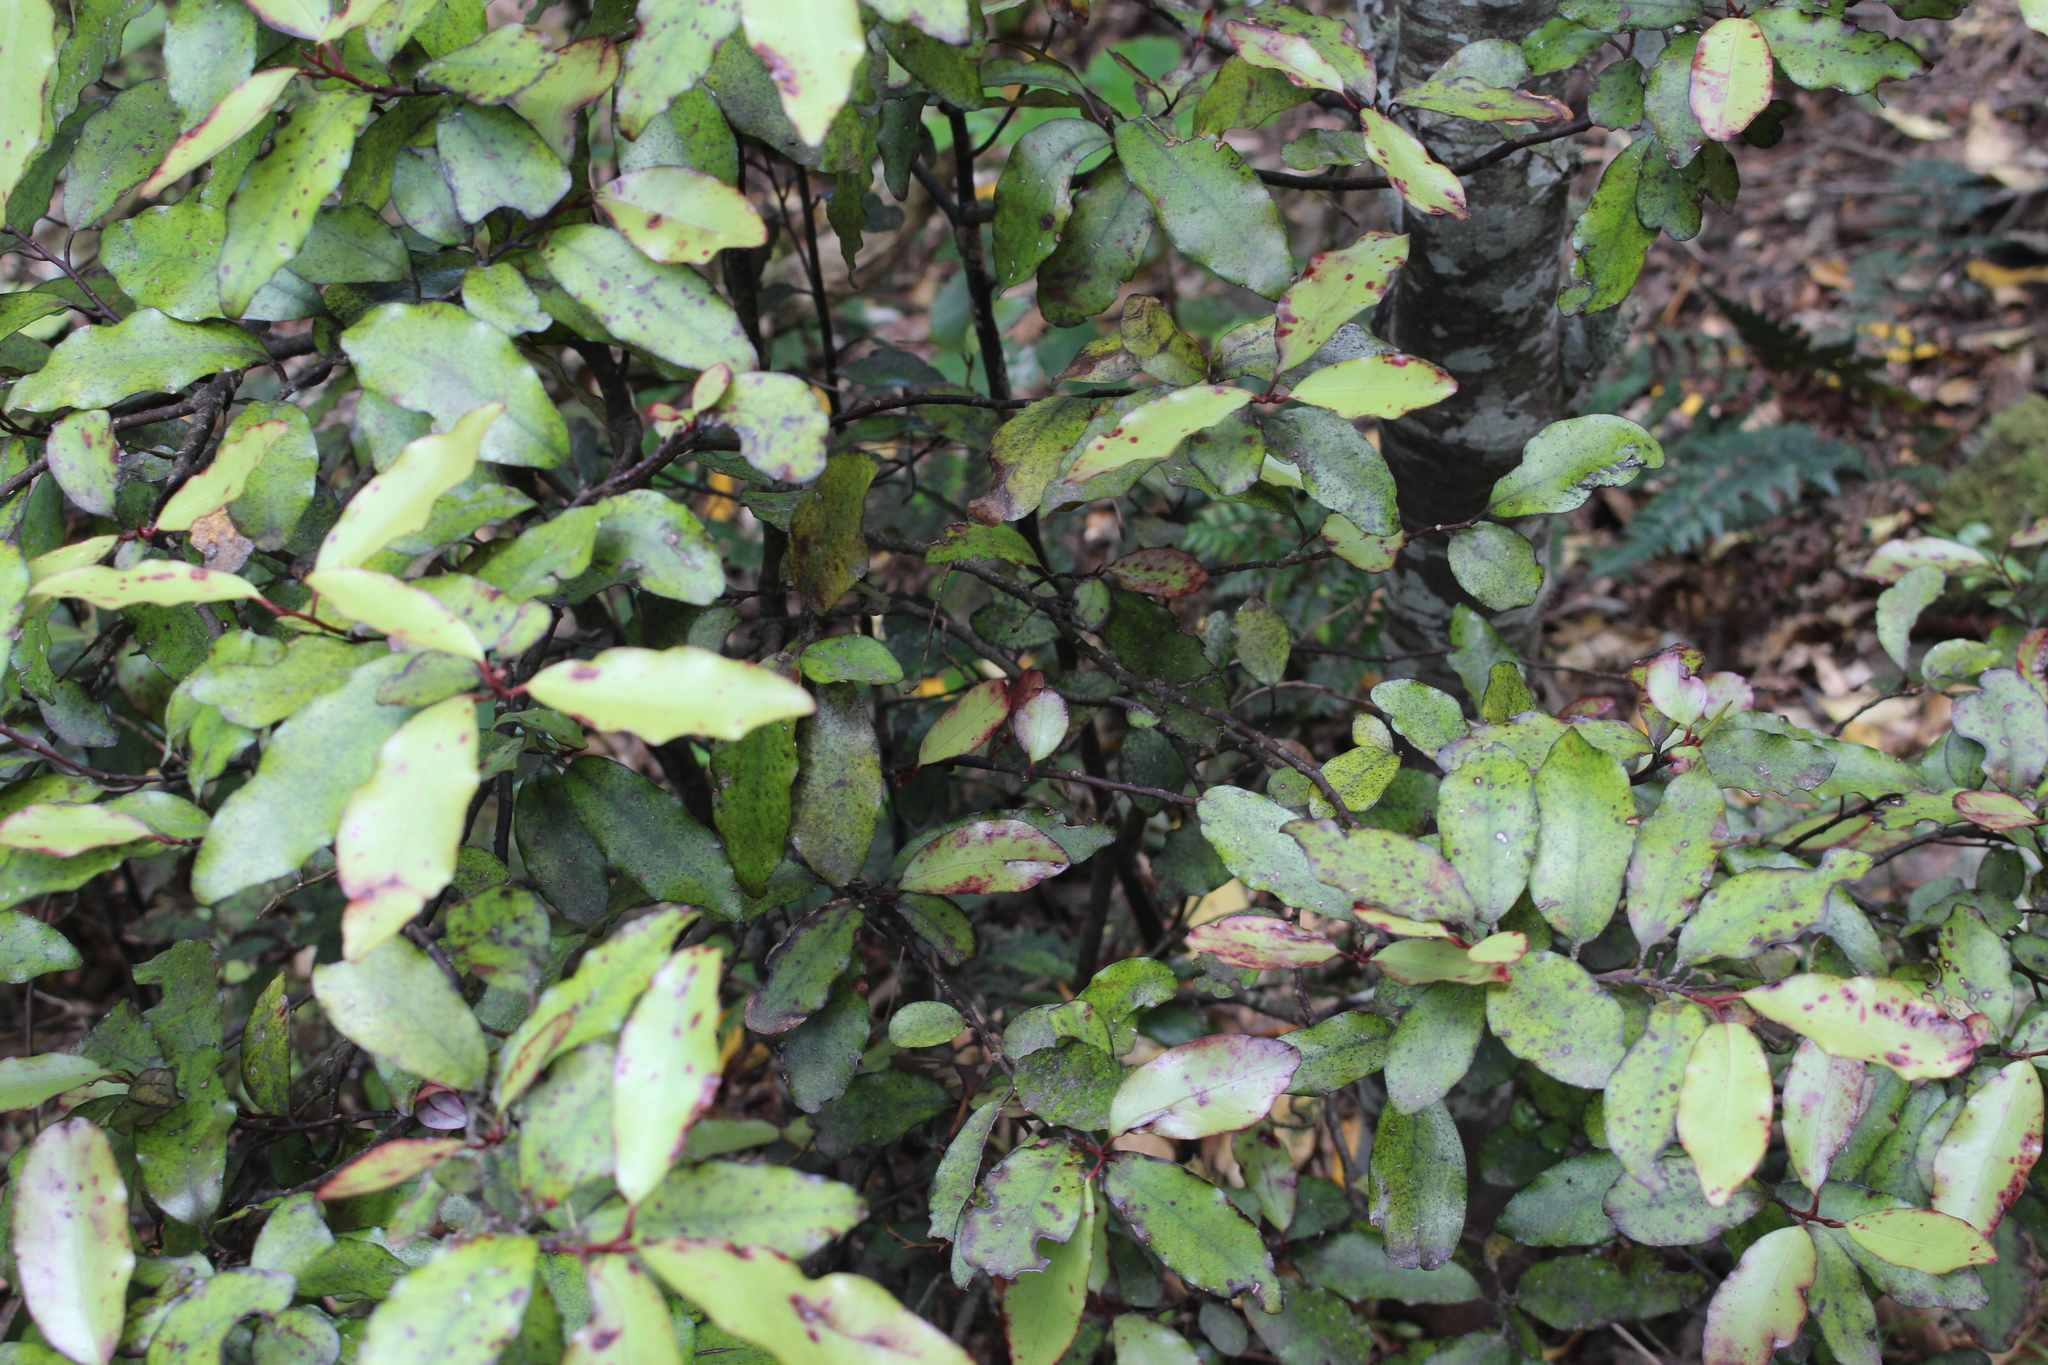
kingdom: Plantae
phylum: Tracheophyta
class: Magnoliopsida
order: Canellales
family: Winteraceae
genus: Pseudowintera
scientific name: Pseudowintera colorata
